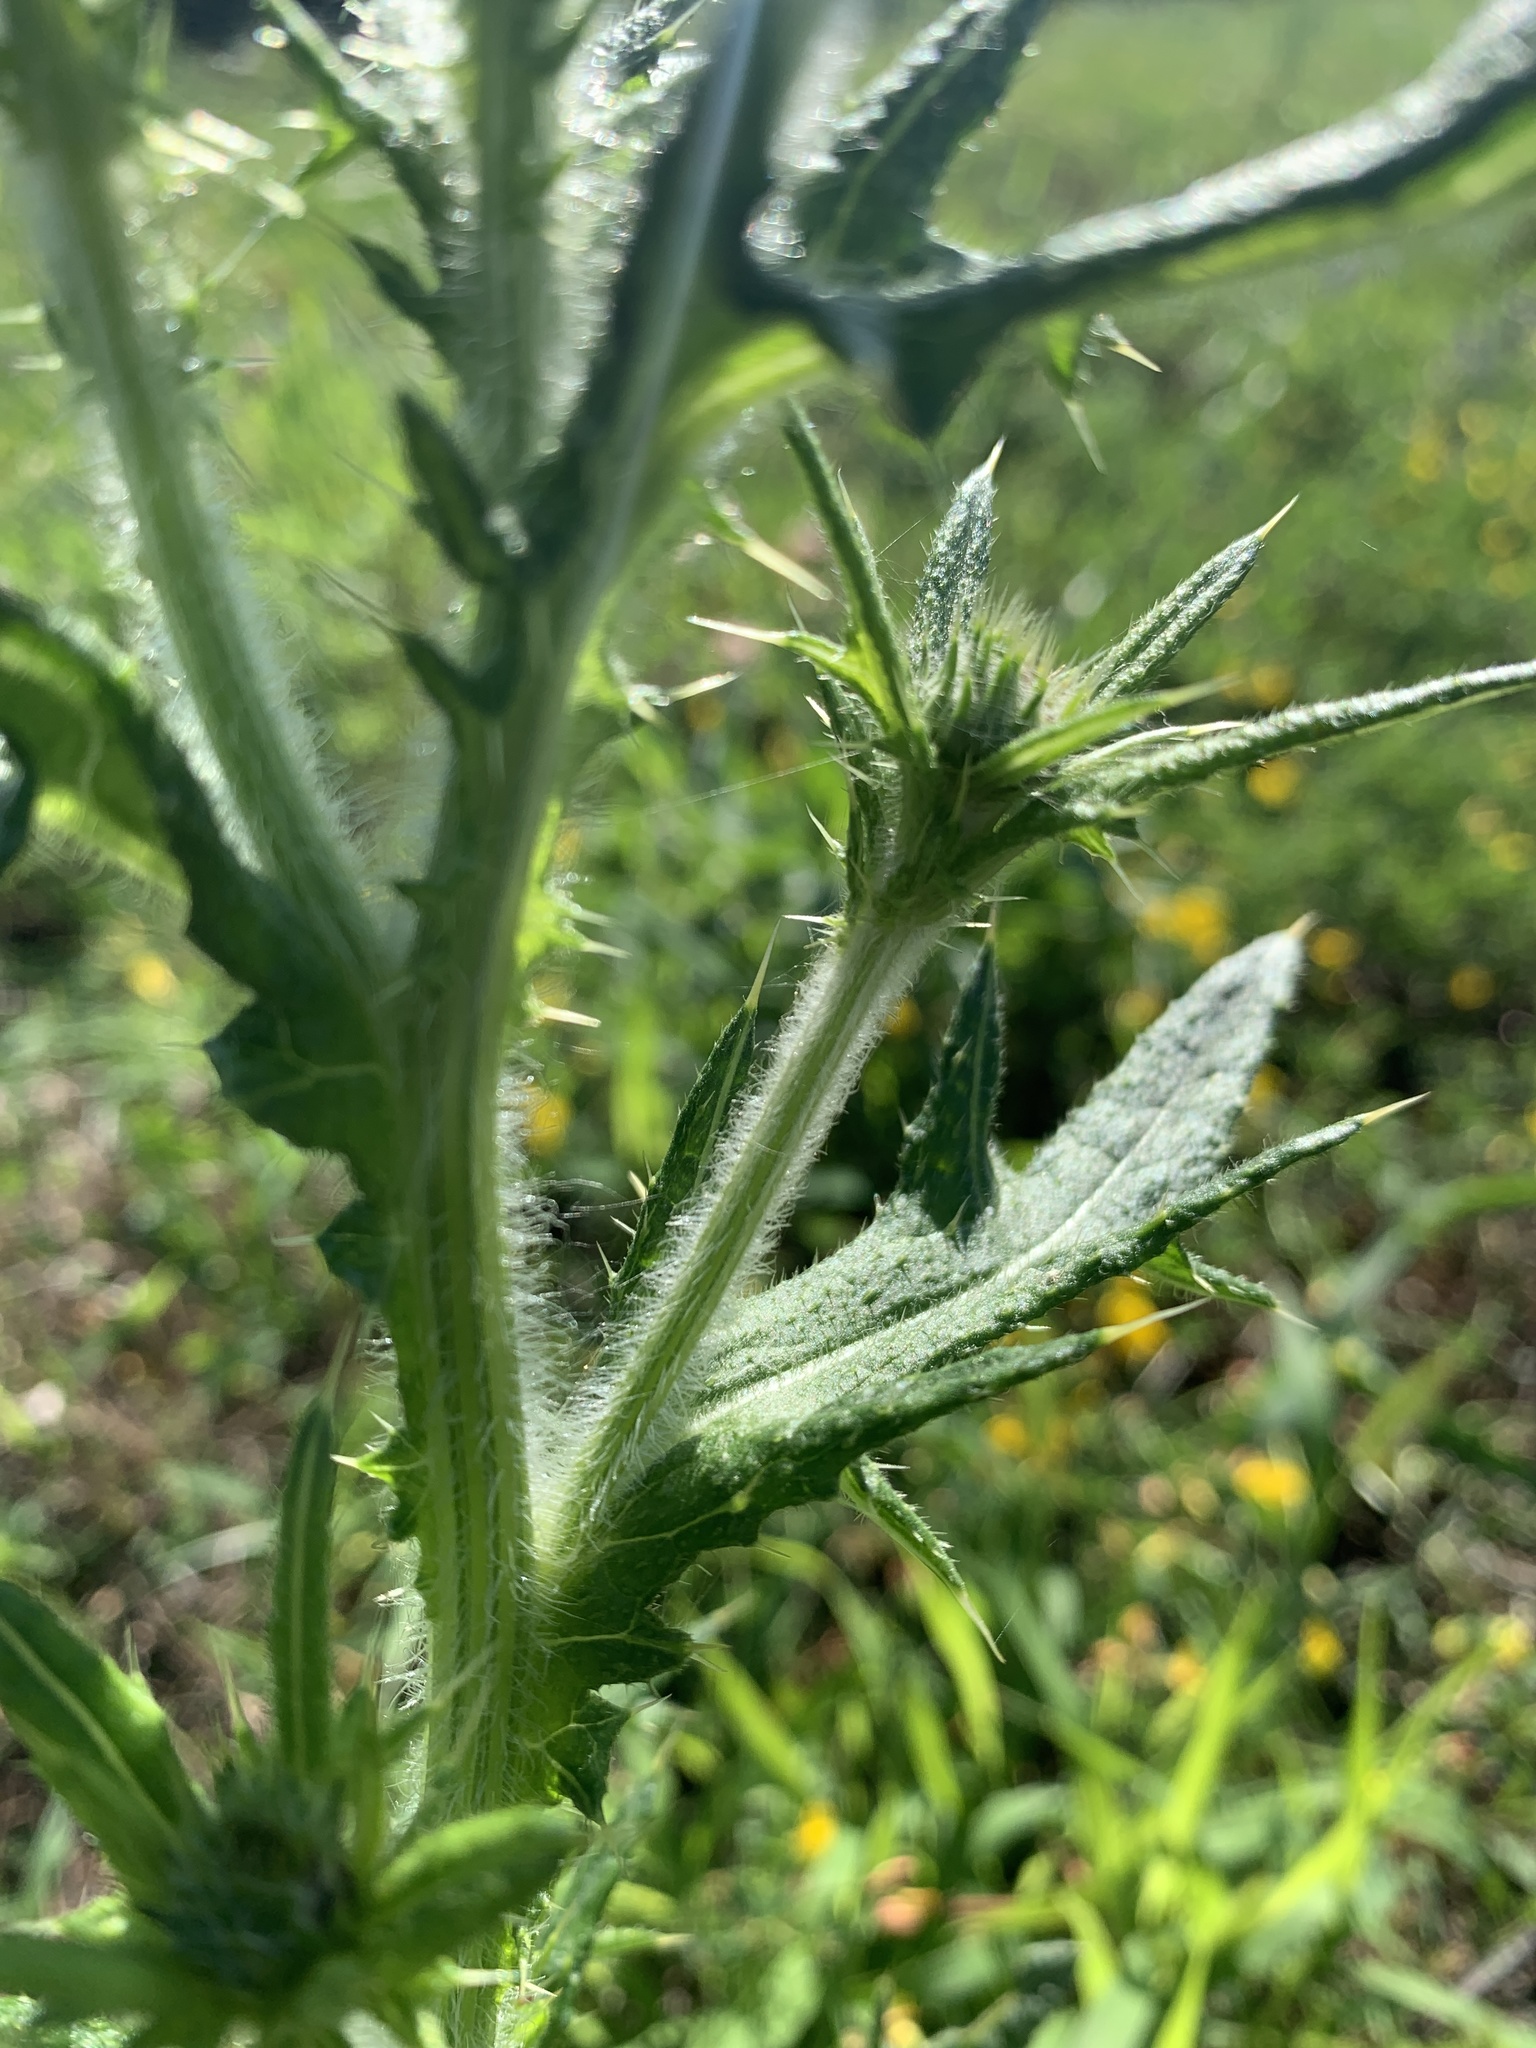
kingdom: Plantae
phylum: Tracheophyta
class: Magnoliopsida
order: Asterales
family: Asteraceae
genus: Cirsium
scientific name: Cirsium vulgare
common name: Bull thistle
